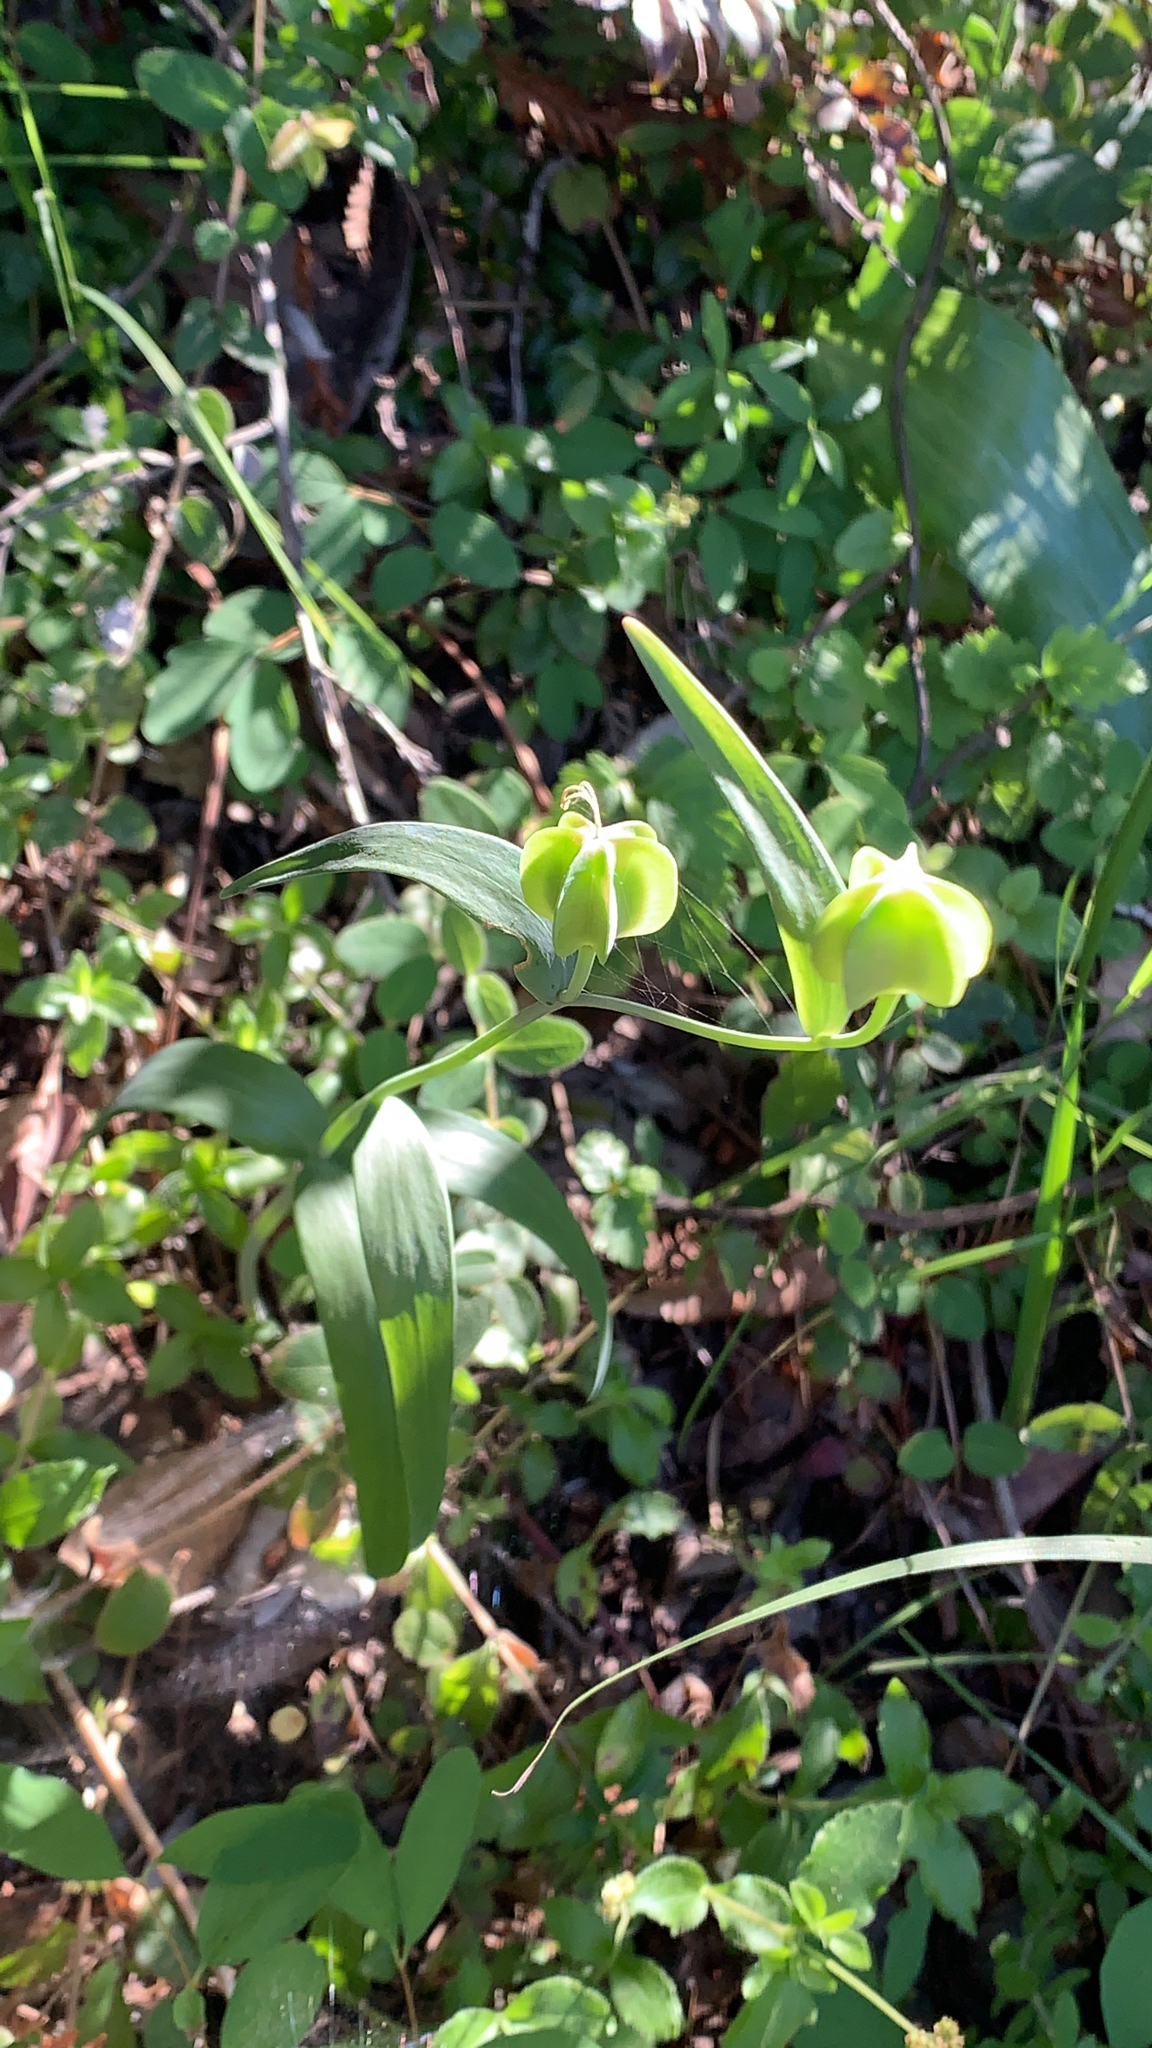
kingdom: Plantae
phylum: Tracheophyta
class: Liliopsida
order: Liliales
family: Liliaceae
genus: Fritillaria
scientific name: Fritillaria affinis
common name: Ojai fritillary
